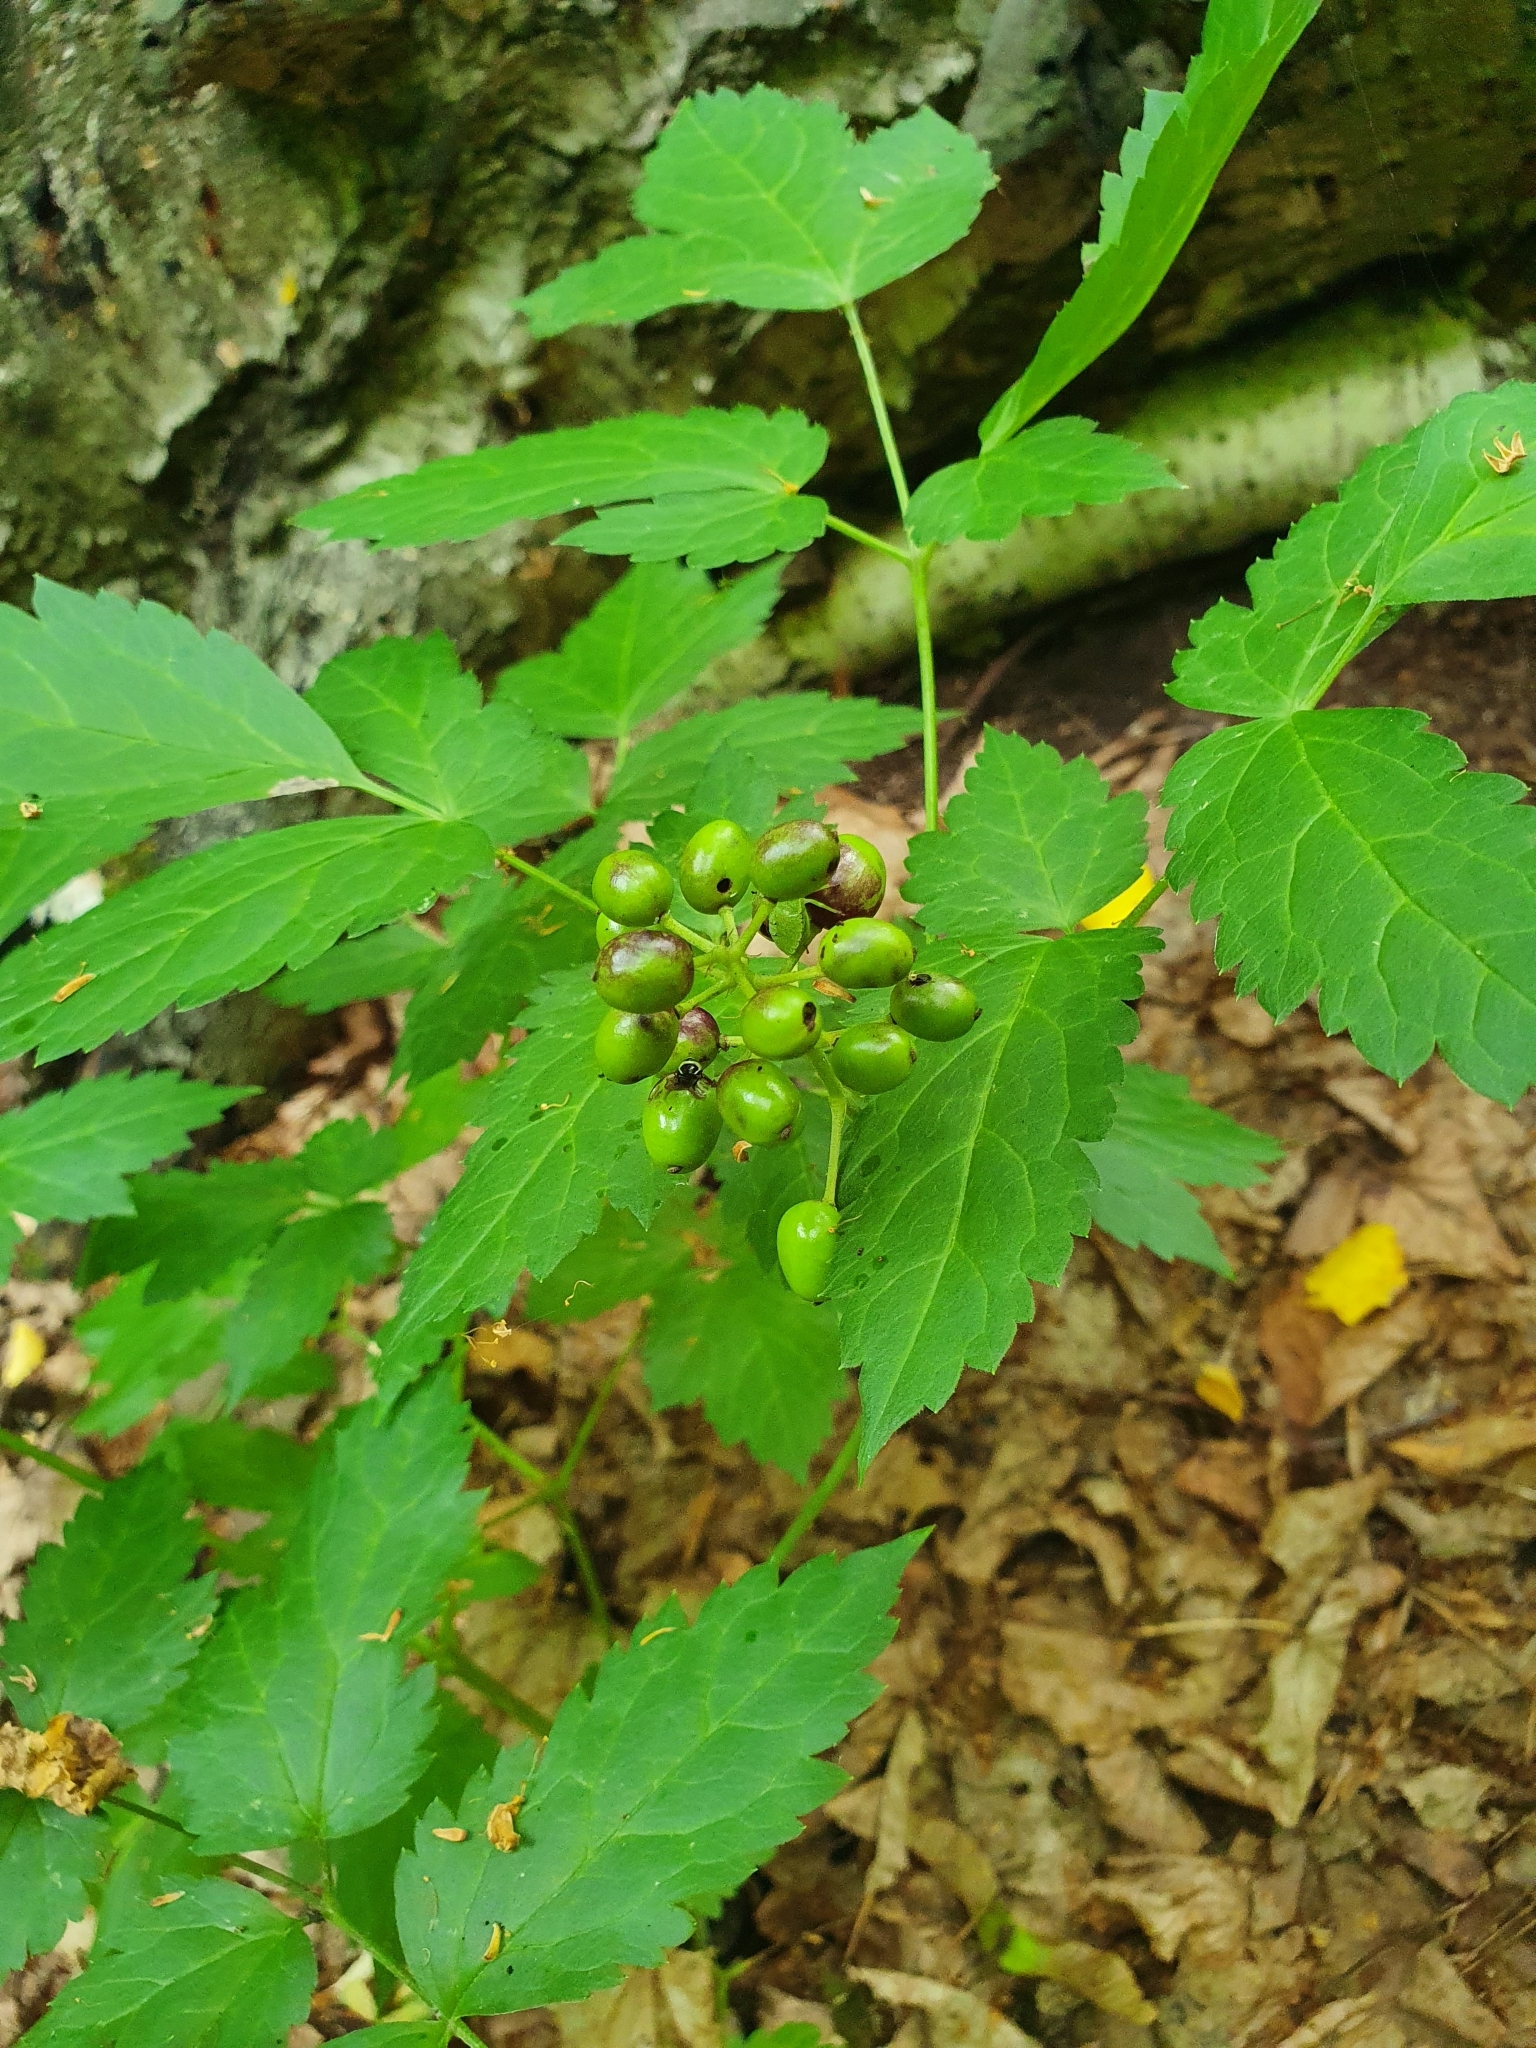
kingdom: Plantae
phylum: Tracheophyta
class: Magnoliopsida
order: Ranunculales
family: Ranunculaceae
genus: Actaea
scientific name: Actaea spicata
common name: Baneberry
